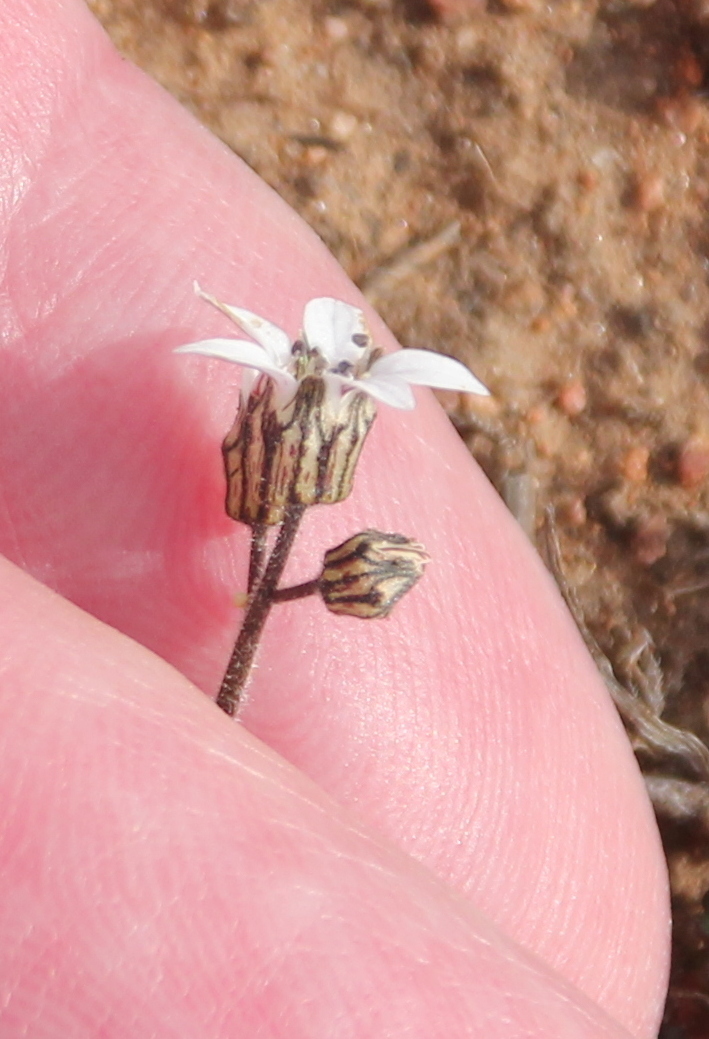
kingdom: Plantae
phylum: Tracheophyta
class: Magnoliopsida
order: Saxifragales
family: Saxifragaceae
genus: Jepsonia
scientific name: Jepsonia parryi
